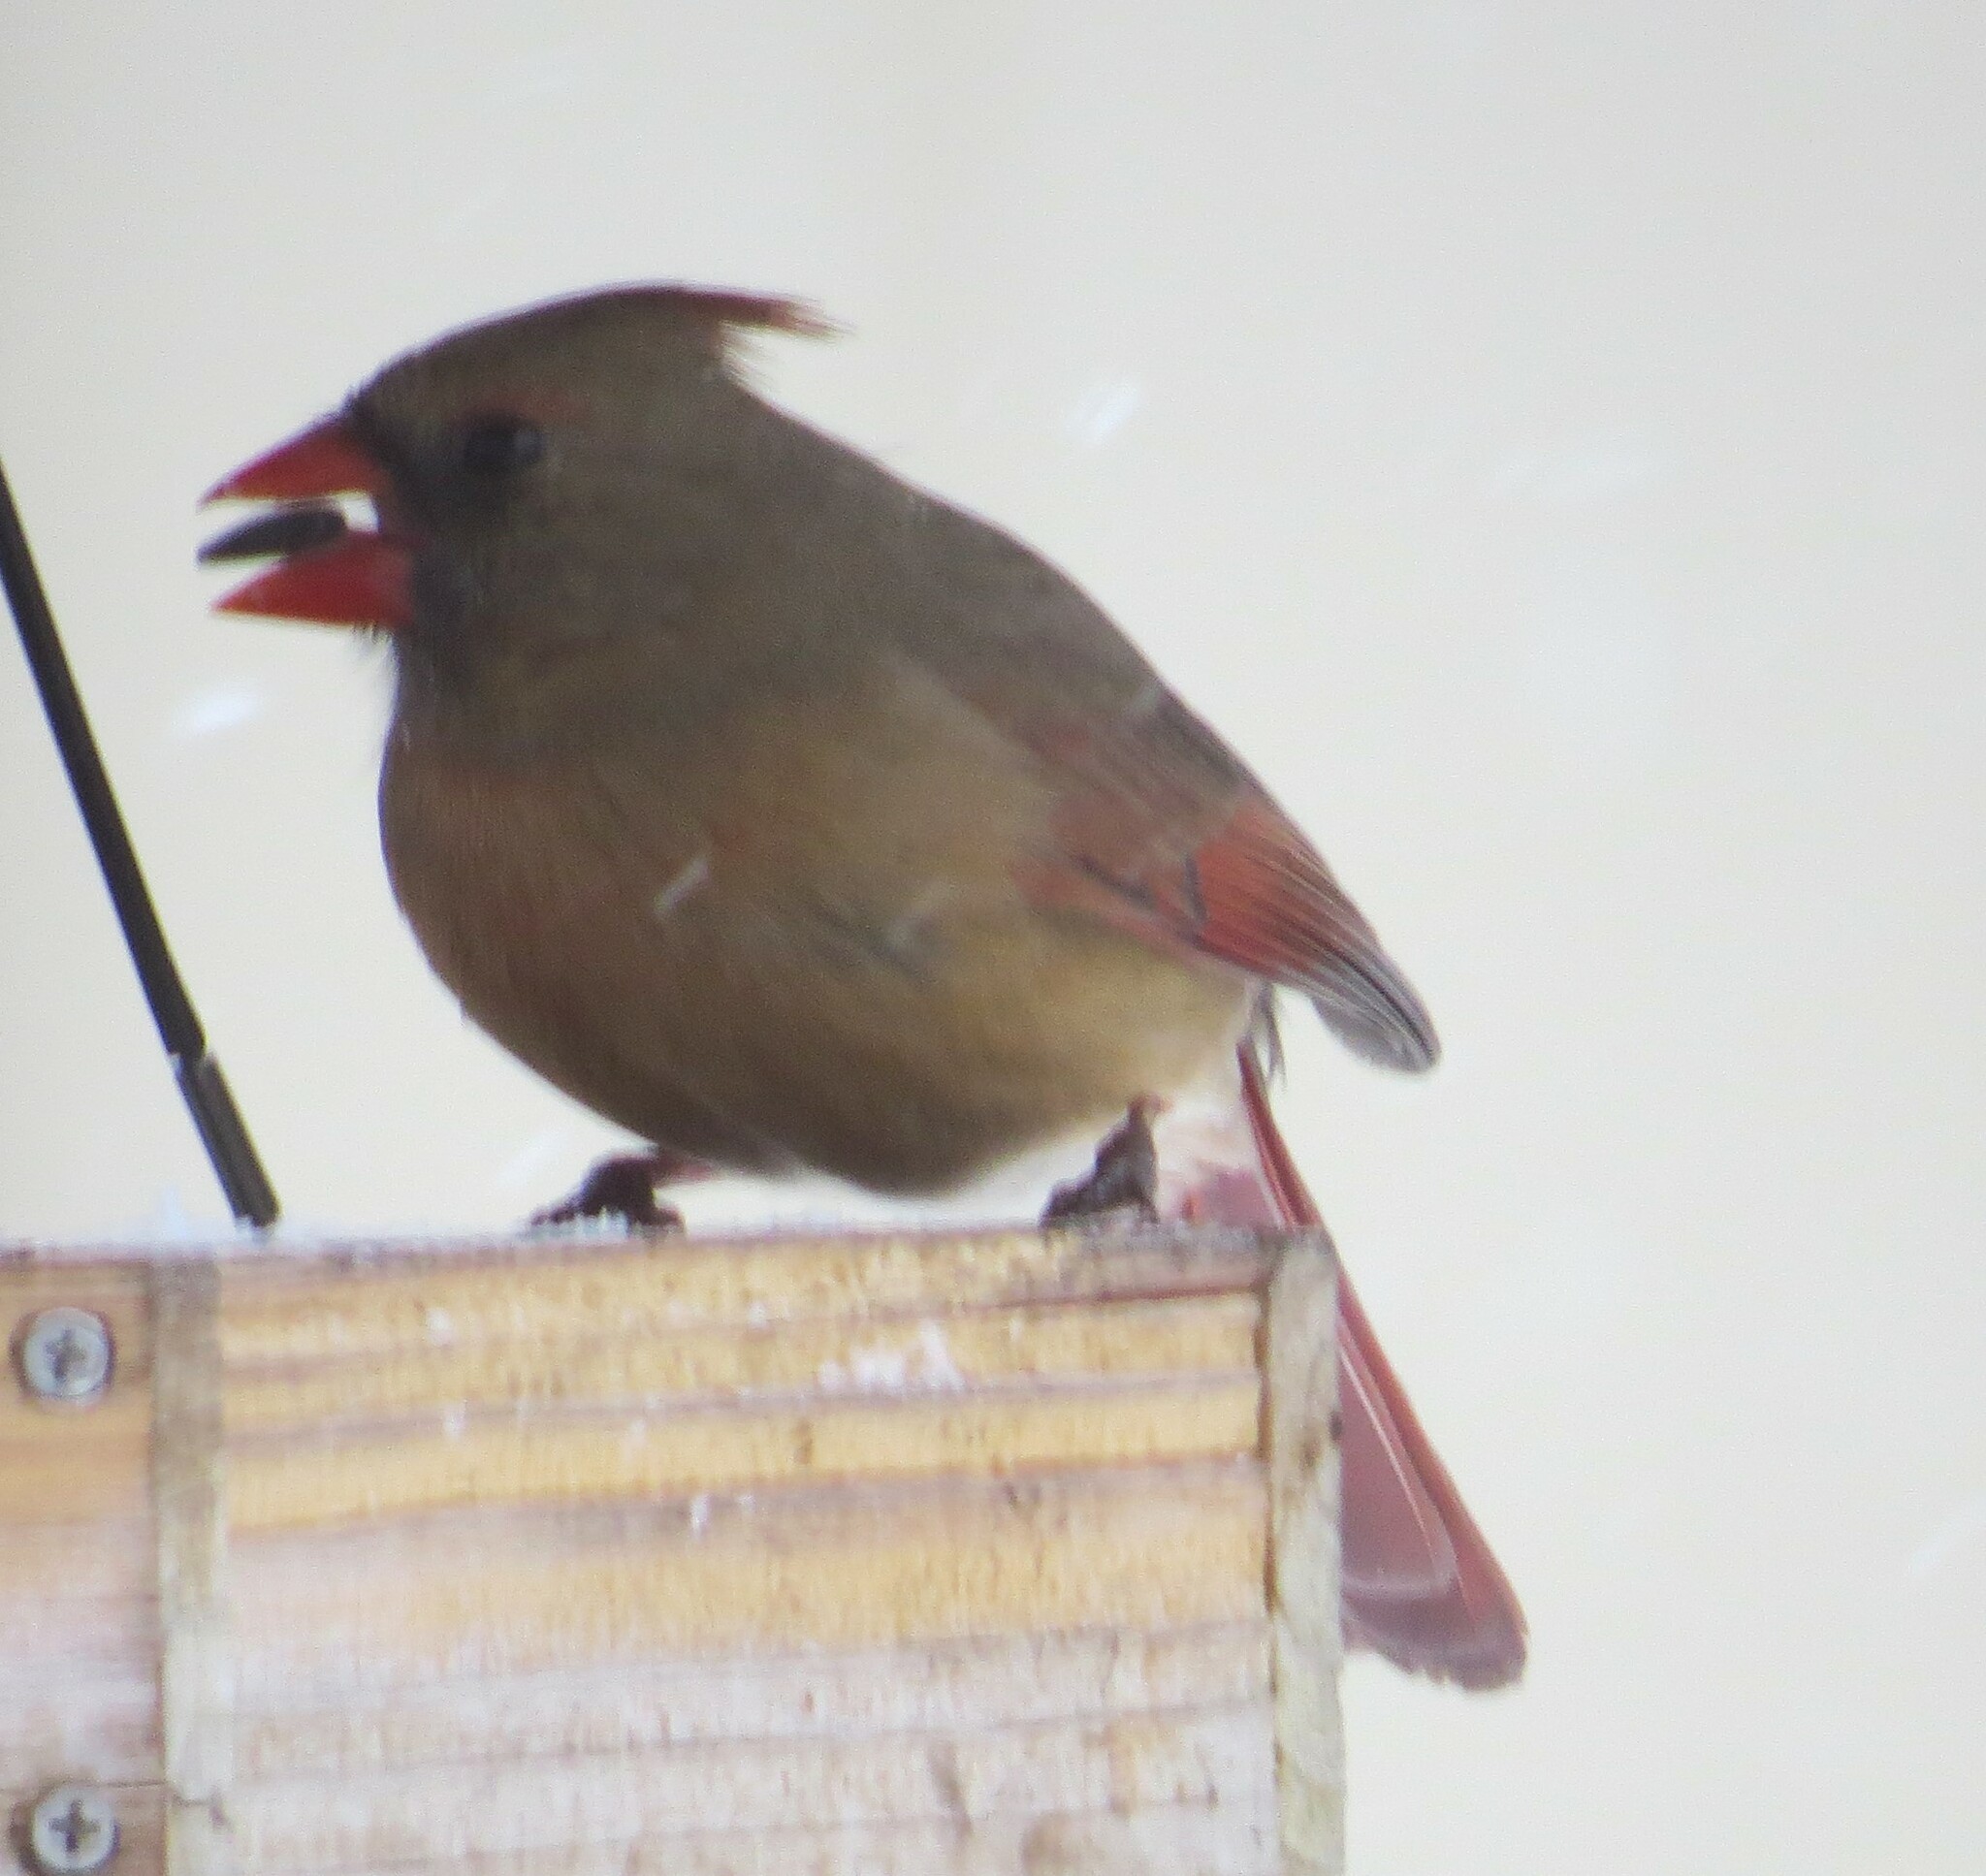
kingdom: Animalia
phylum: Chordata
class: Aves
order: Passeriformes
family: Cardinalidae
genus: Cardinalis
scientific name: Cardinalis cardinalis
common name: Northern cardinal
